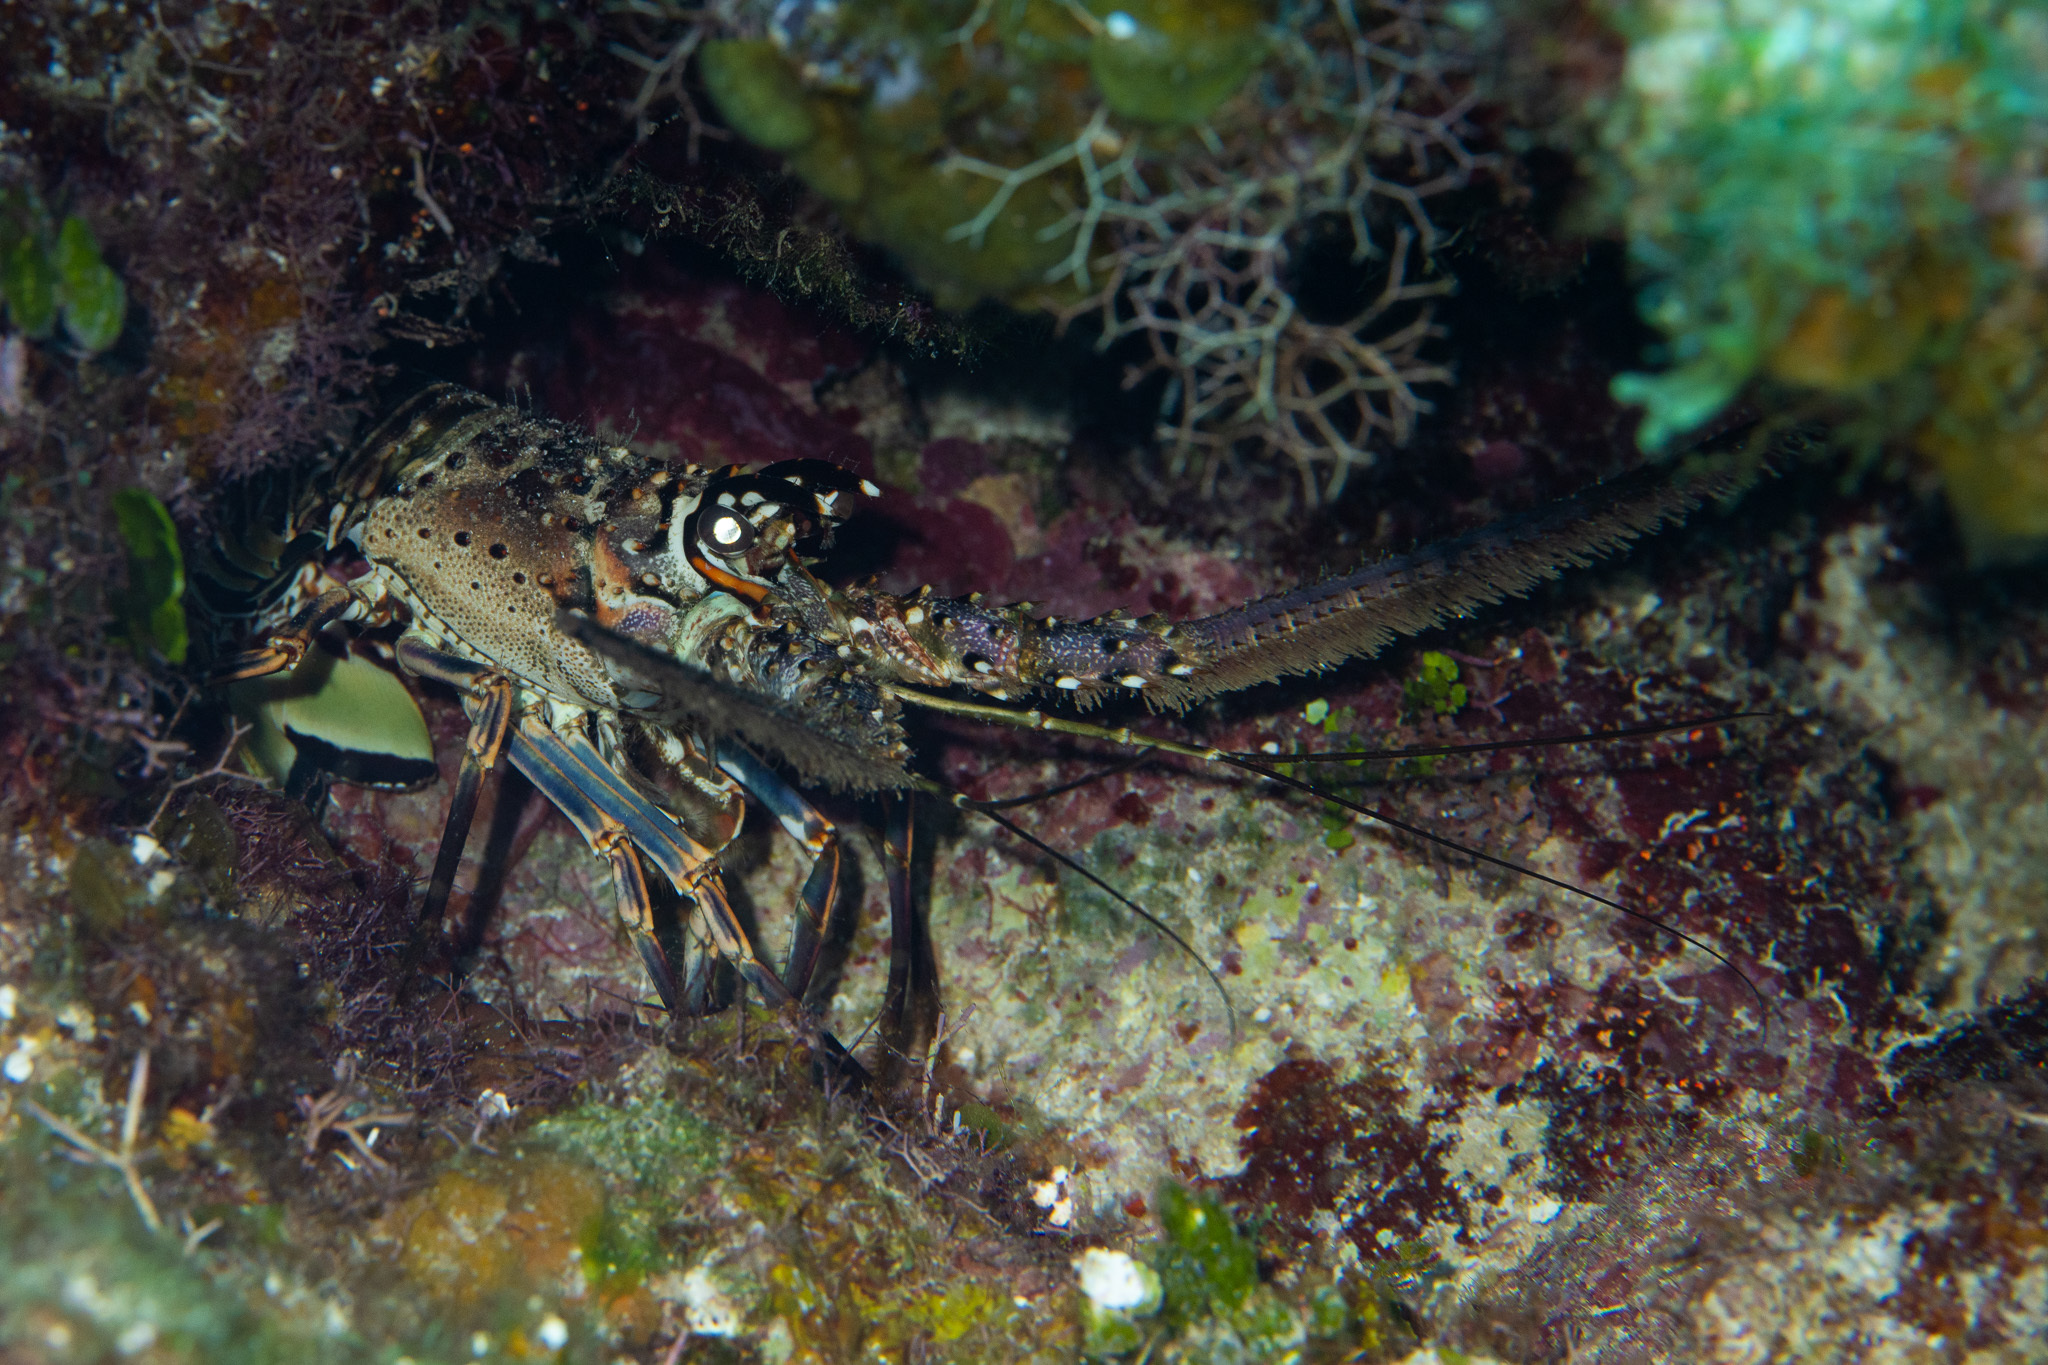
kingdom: Animalia
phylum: Arthropoda
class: Malacostraca
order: Decapoda
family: Palinuridae
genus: Panulirus
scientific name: Panulirus argus
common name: Caribbean spiny lobster
